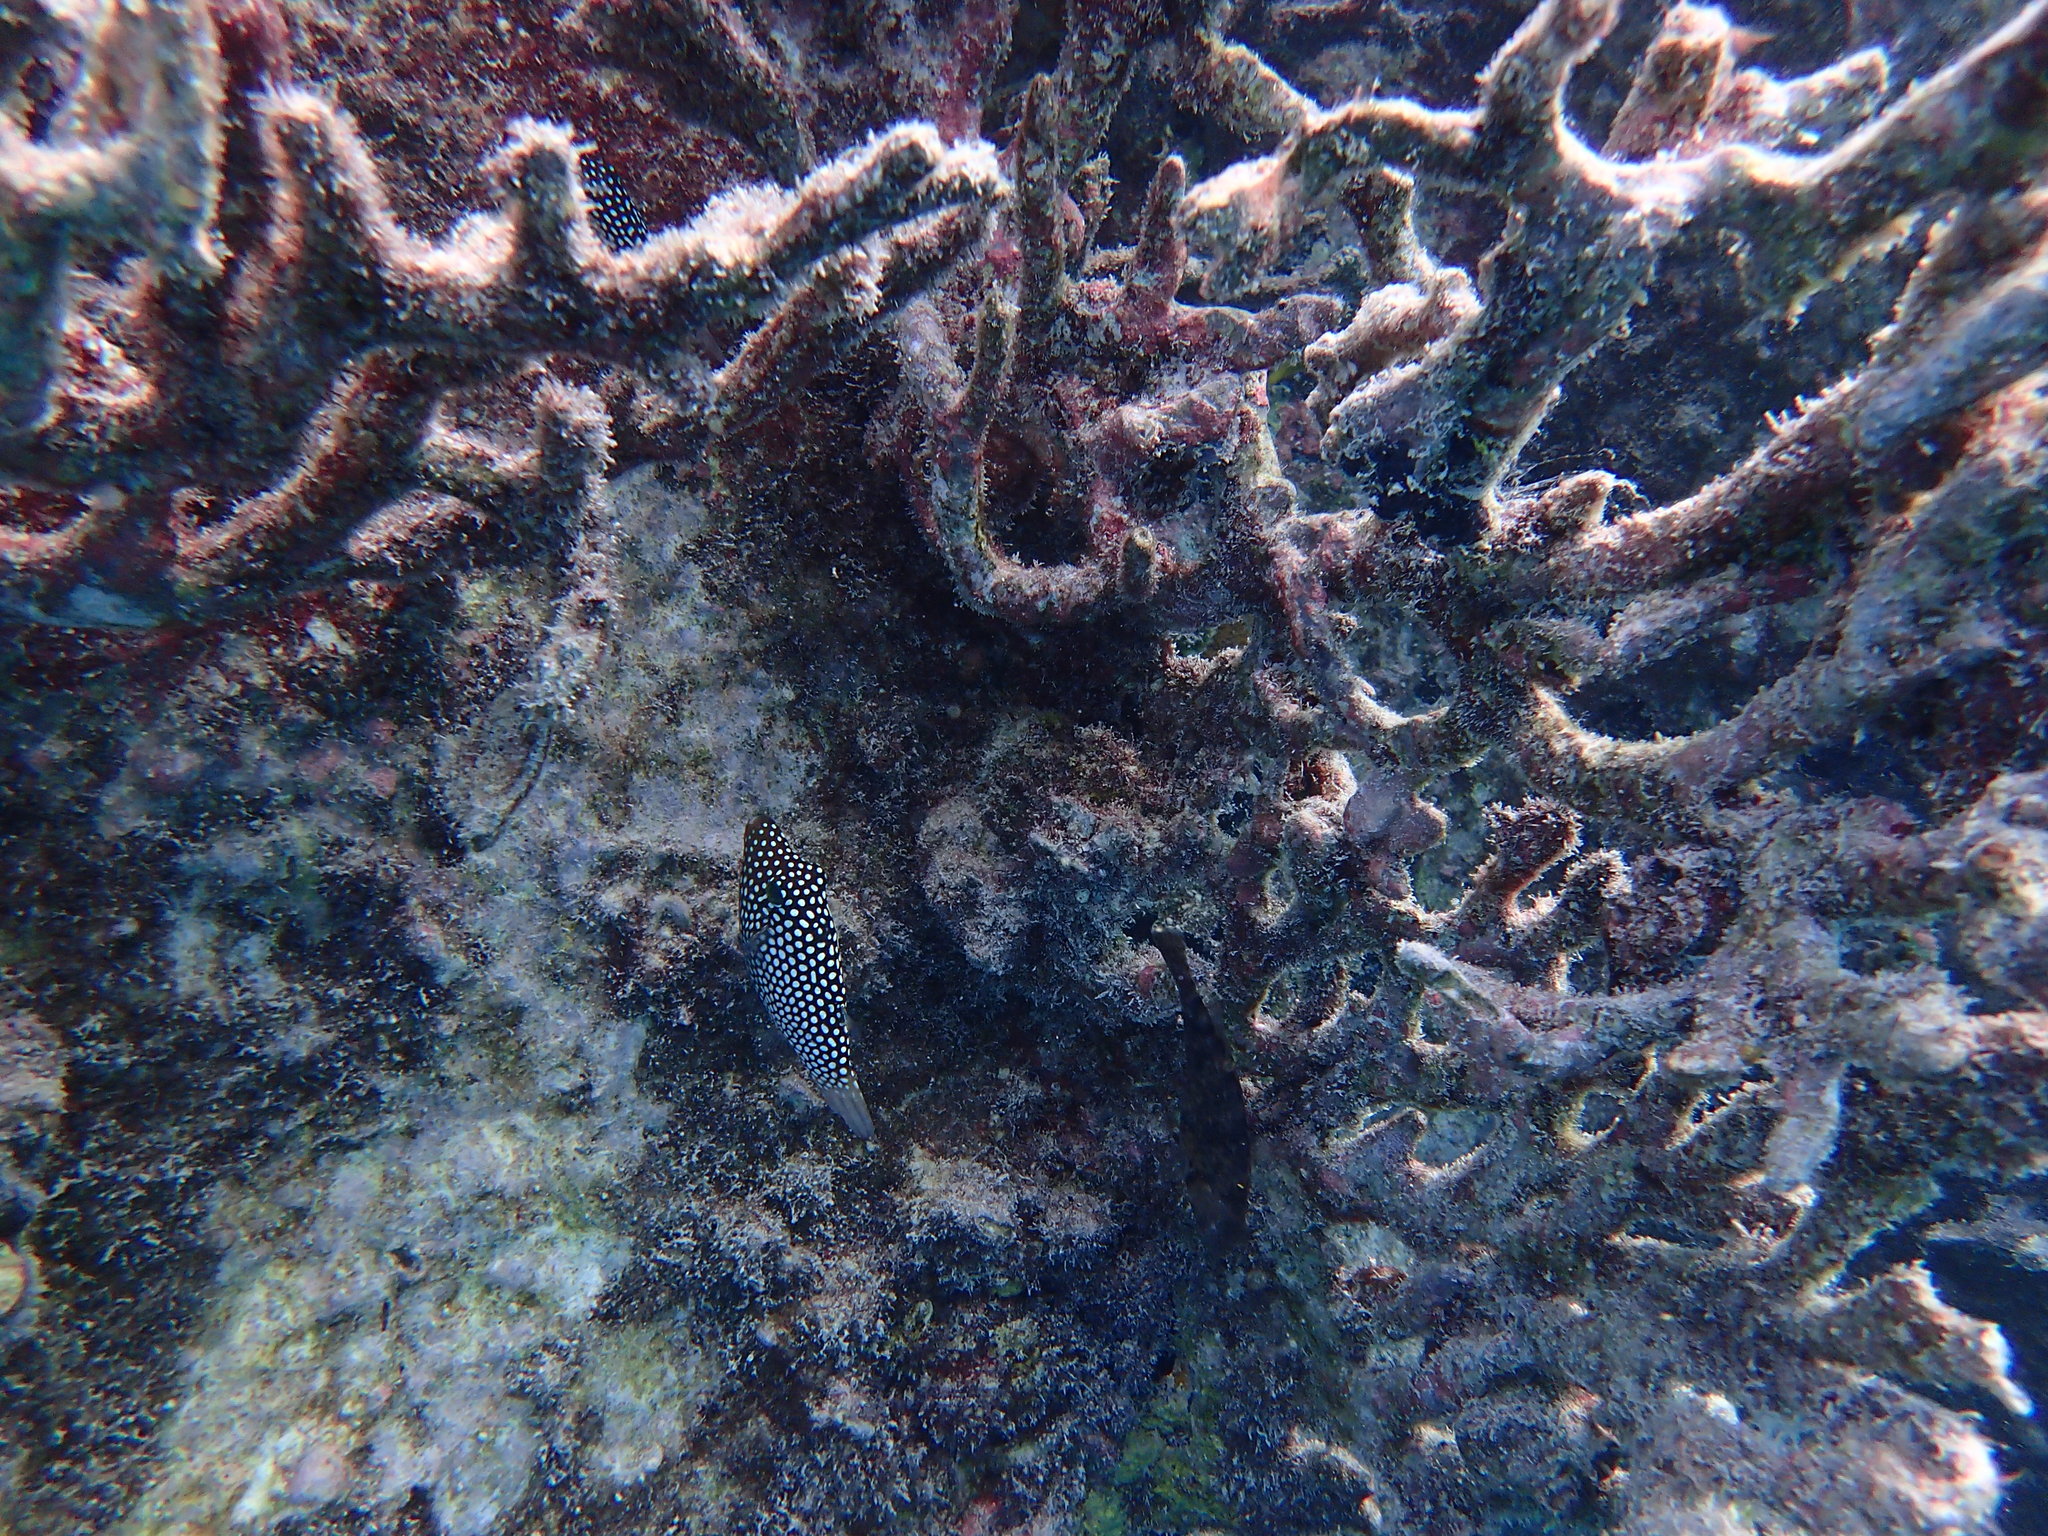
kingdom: Animalia
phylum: Chordata
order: Tetraodontiformes
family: Tetraodontidae
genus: Canthigaster
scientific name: Canthigaster jactator
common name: Hawaiian whitespotted toby
